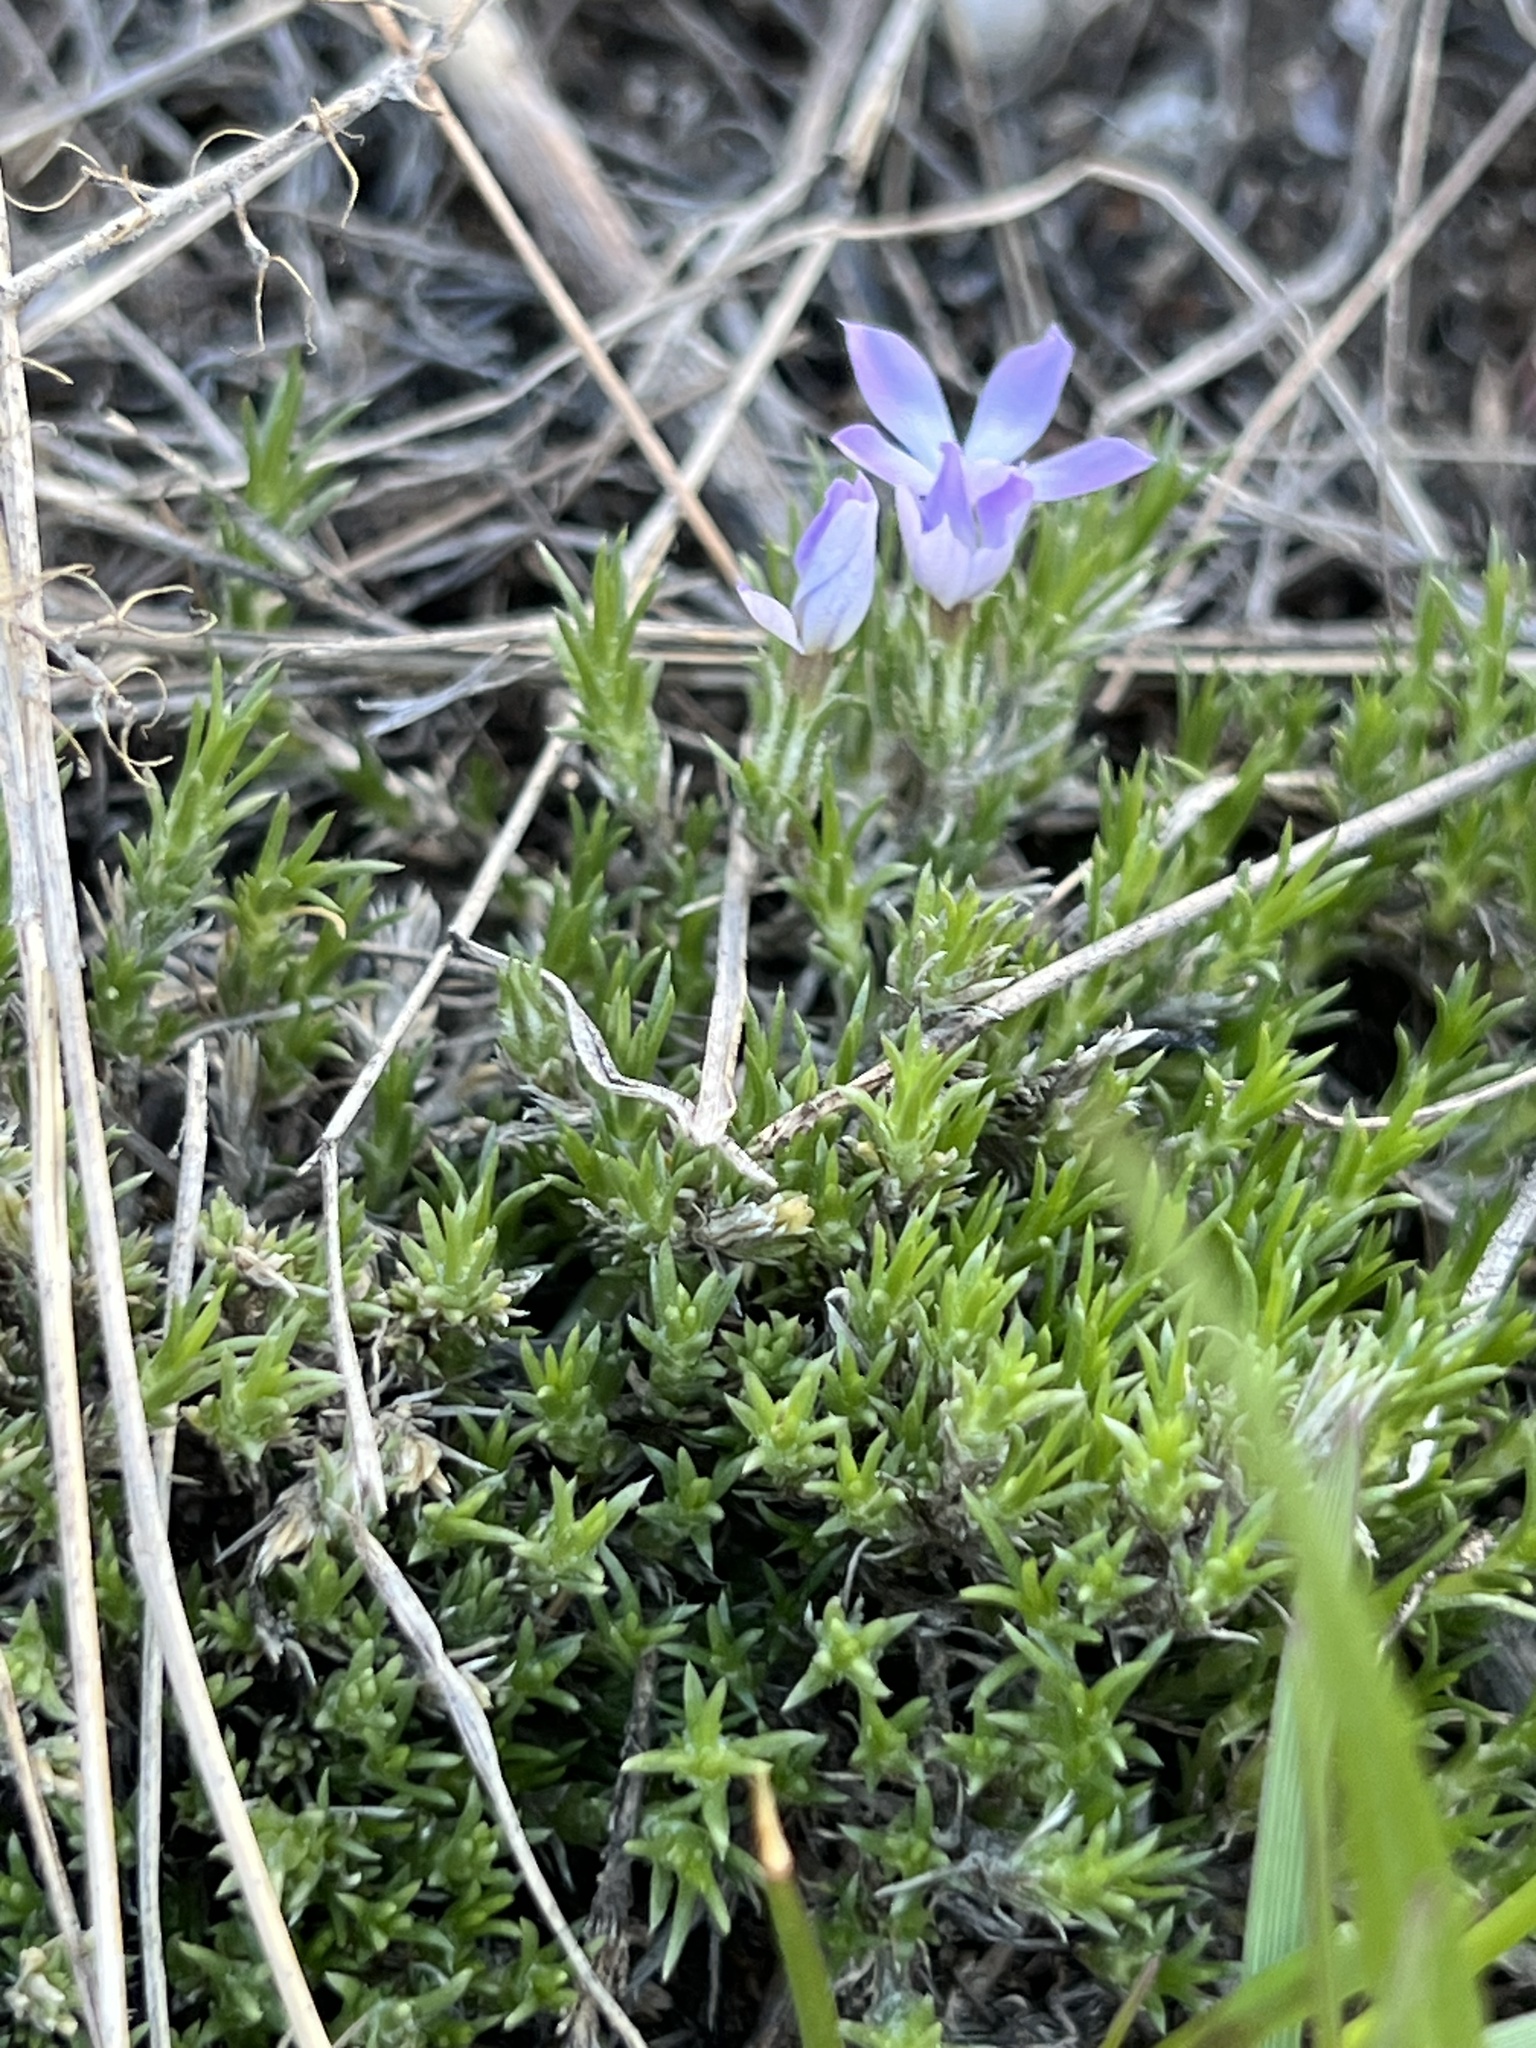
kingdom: Plantae
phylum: Tracheophyta
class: Magnoliopsida
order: Ericales
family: Polemoniaceae
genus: Phlox
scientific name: Phlox hoodii
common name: Moss phlox
